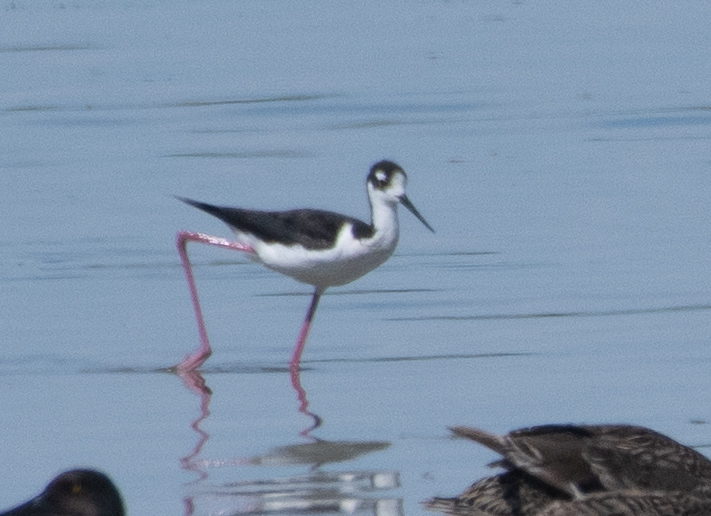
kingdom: Animalia
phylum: Chordata
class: Aves
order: Charadriiformes
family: Recurvirostridae
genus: Himantopus
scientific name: Himantopus mexicanus
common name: Black-necked stilt
